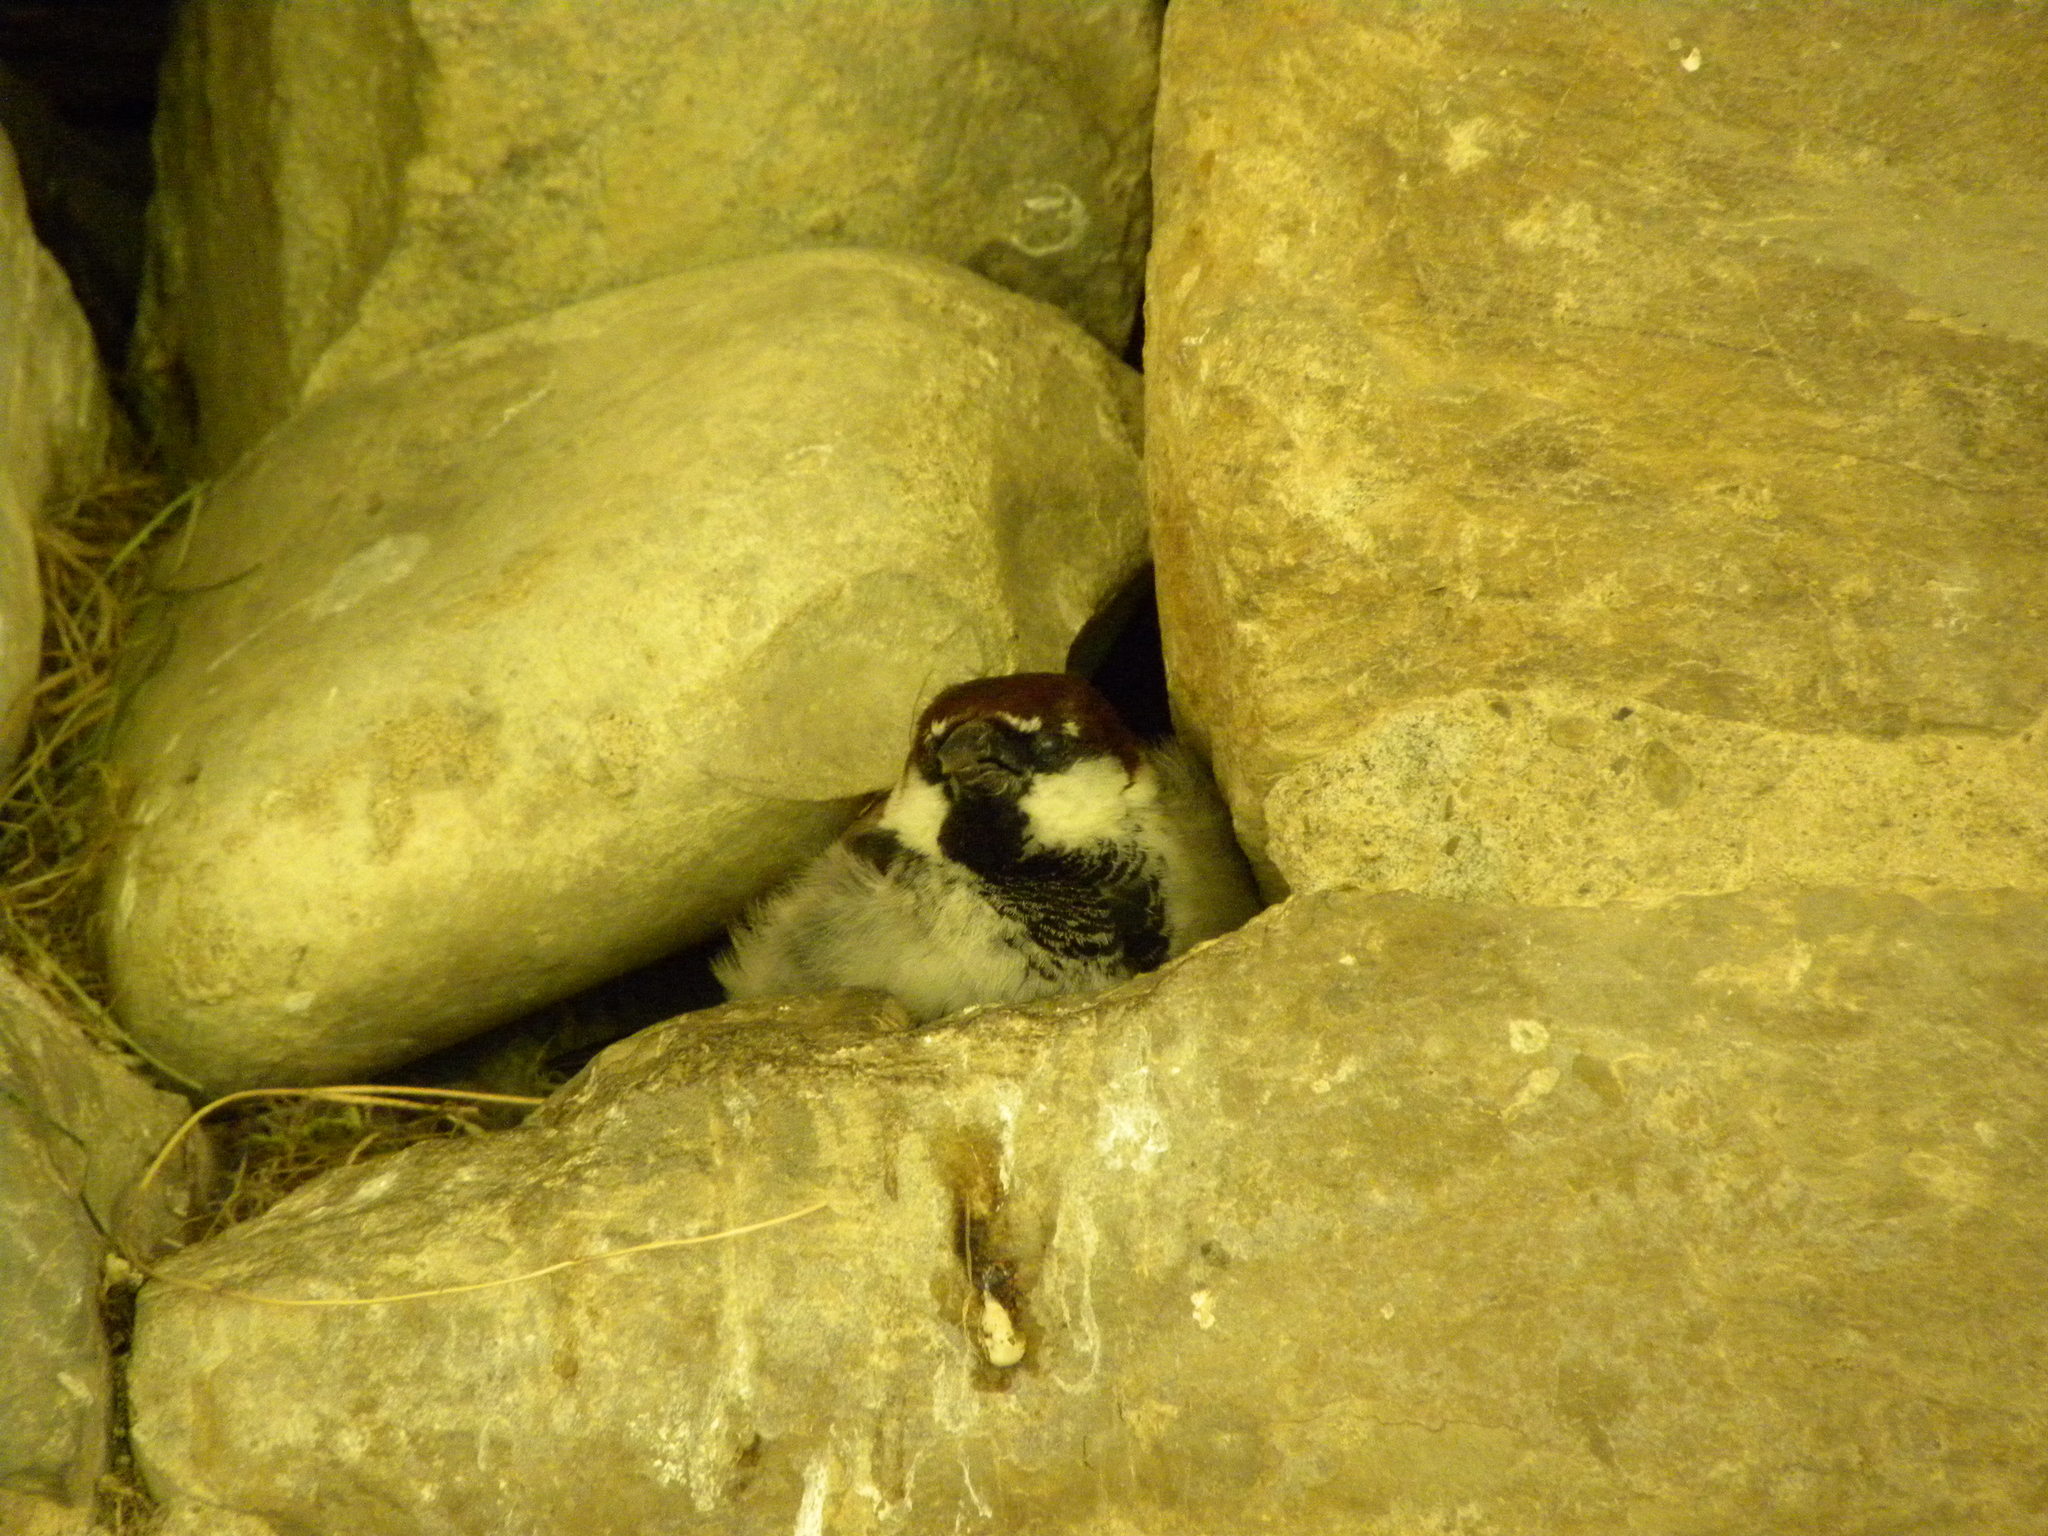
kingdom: Animalia
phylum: Chordata
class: Aves
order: Passeriformes
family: Passeridae
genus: Passer
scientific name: Passer italiae
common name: Italian sparrow
